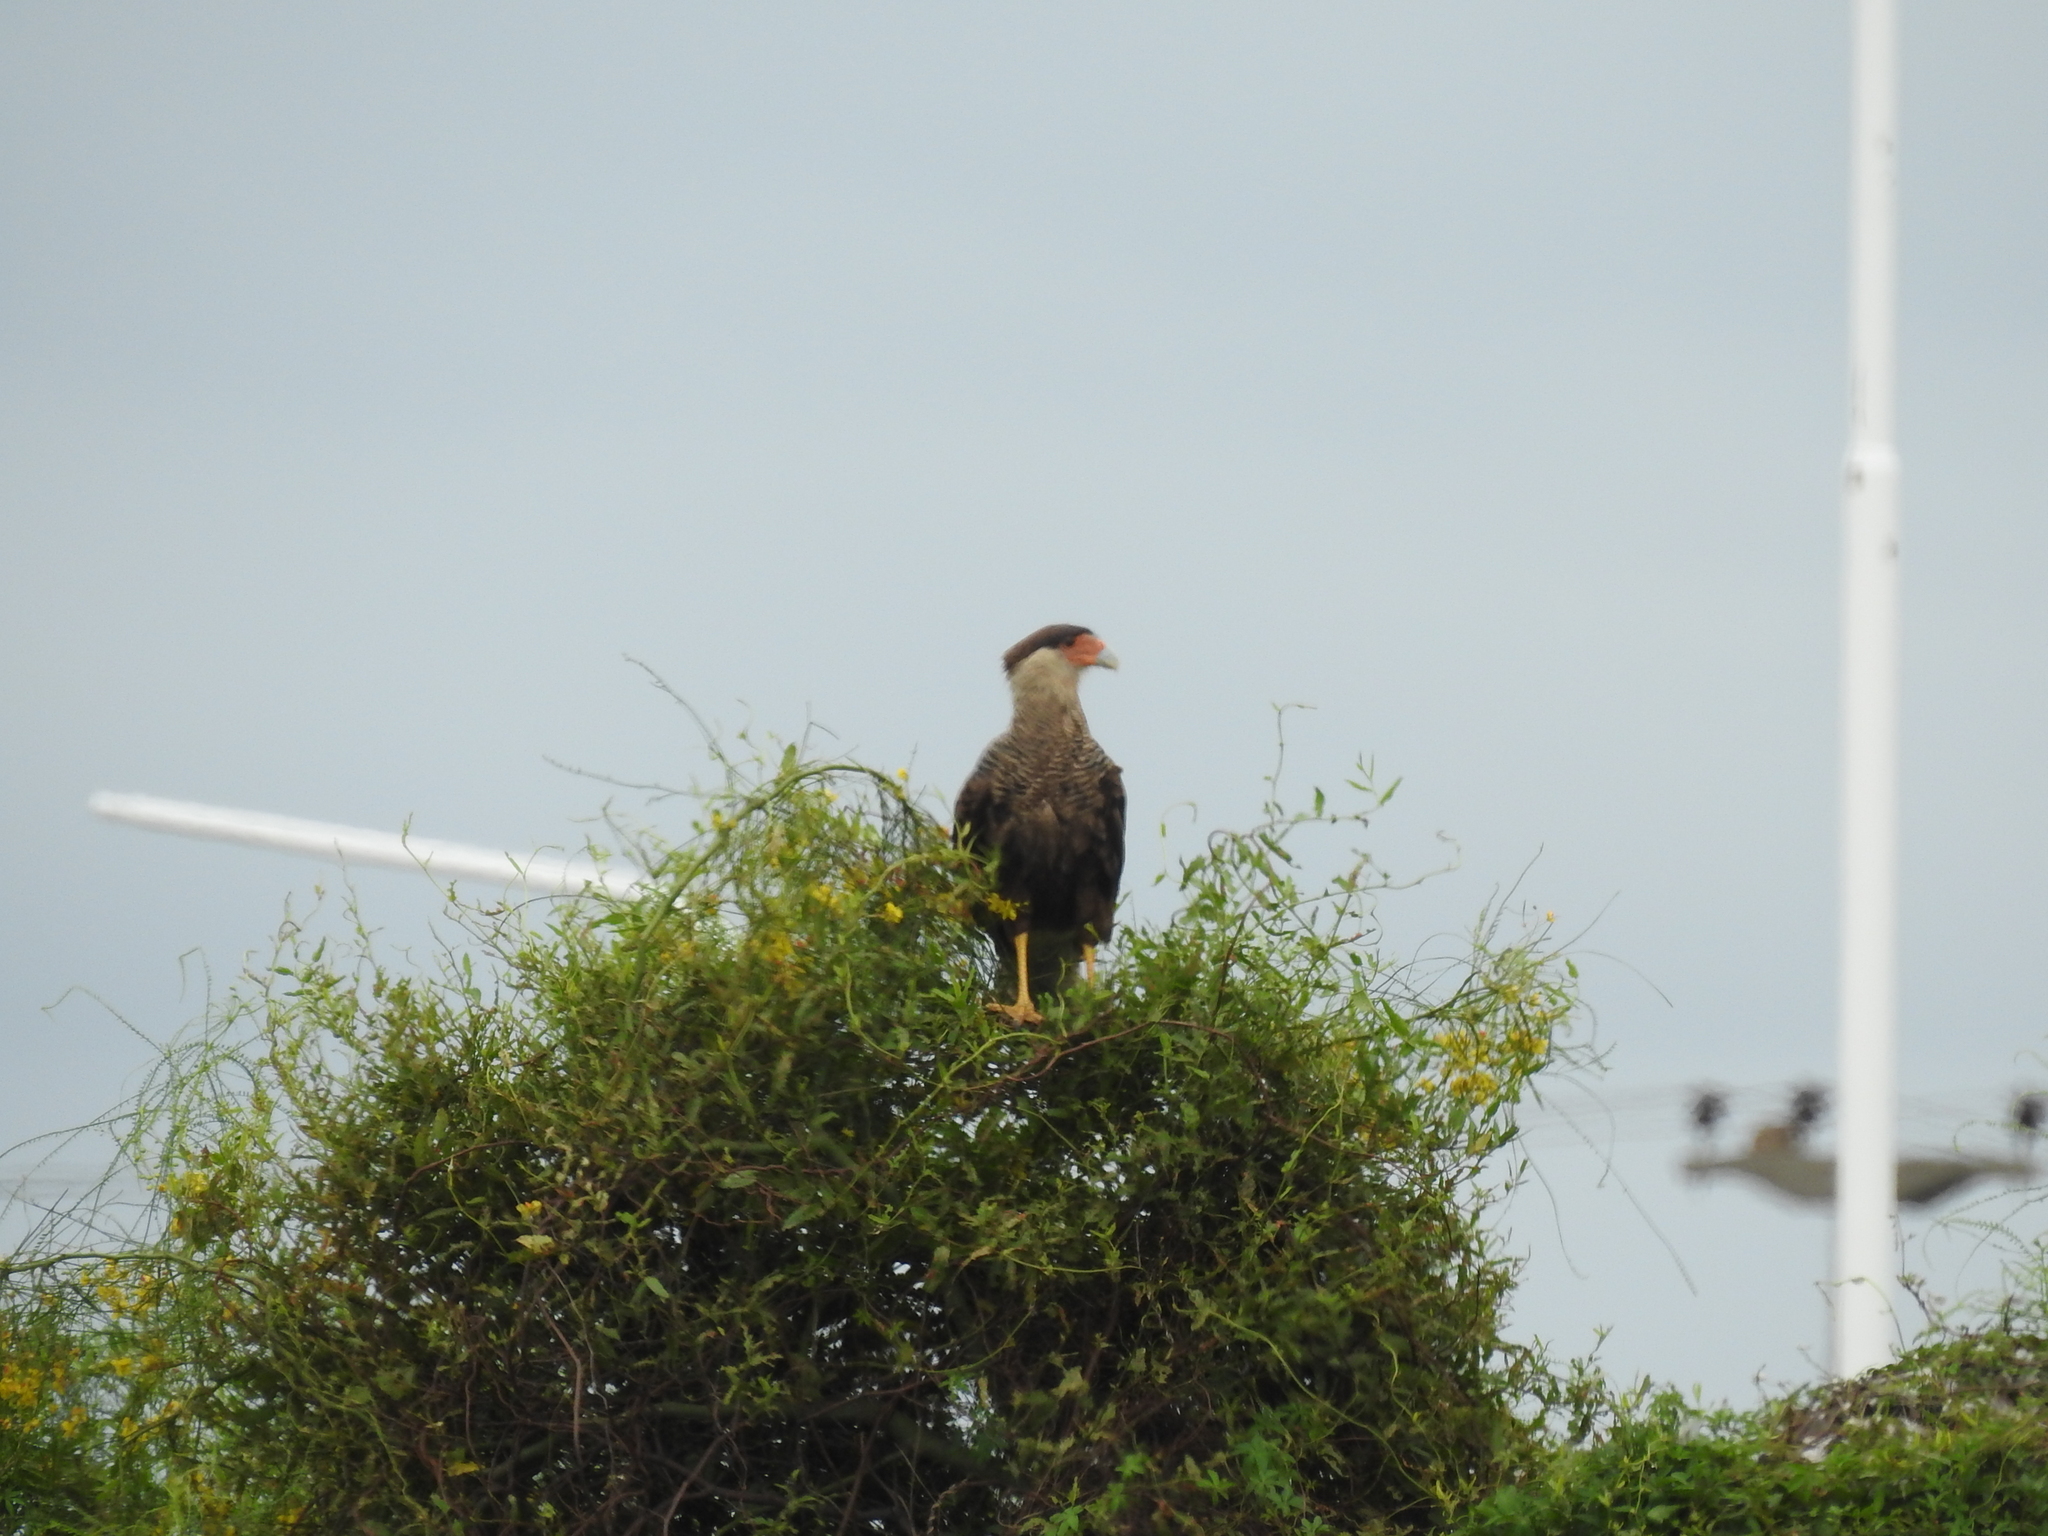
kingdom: Animalia
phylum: Chordata
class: Aves
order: Falconiformes
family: Falconidae
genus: Caracara
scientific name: Caracara plancus
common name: Southern caracara
